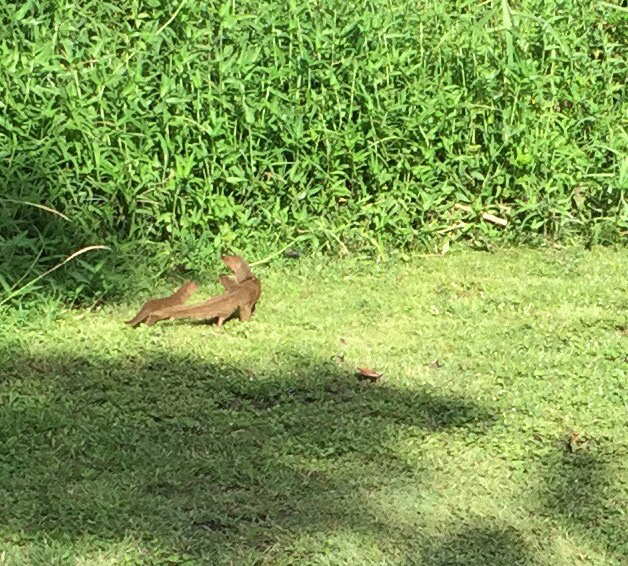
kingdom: Animalia
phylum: Chordata
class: Mammalia
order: Carnivora
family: Herpestidae
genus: Herpestes
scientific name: Herpestes javanicus
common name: Small asian mongoose
